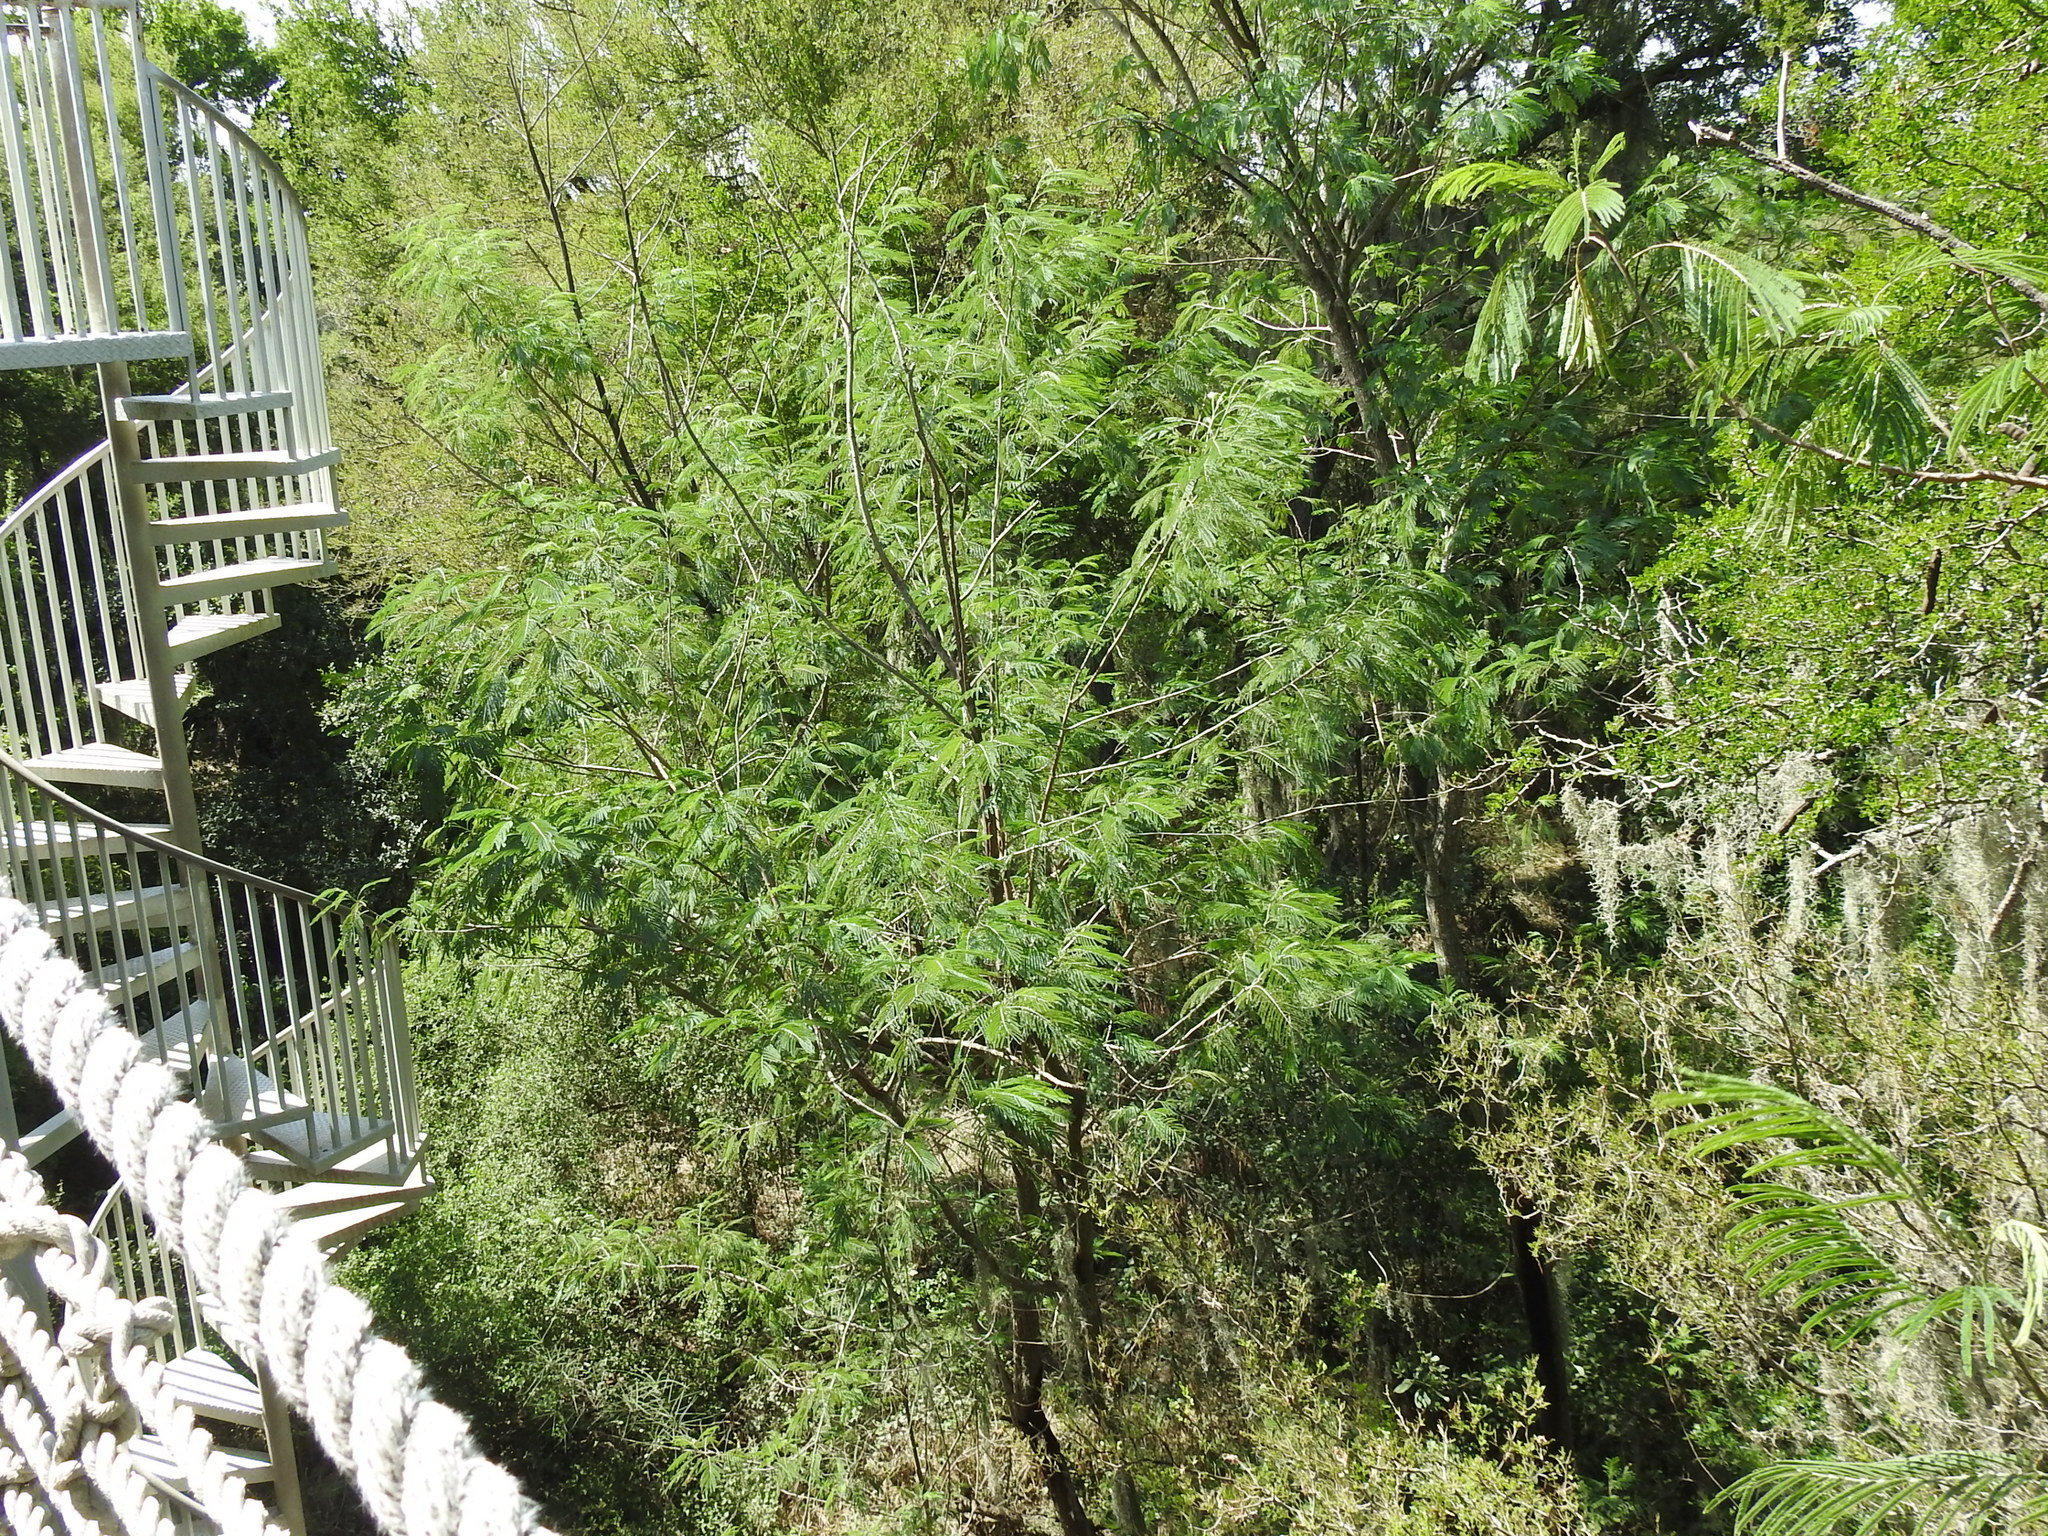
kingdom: Plantae
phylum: Tracheophyta
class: Magnoliopsida
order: Fabales
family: Fabaceae
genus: Havardia
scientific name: Havardia pallens
